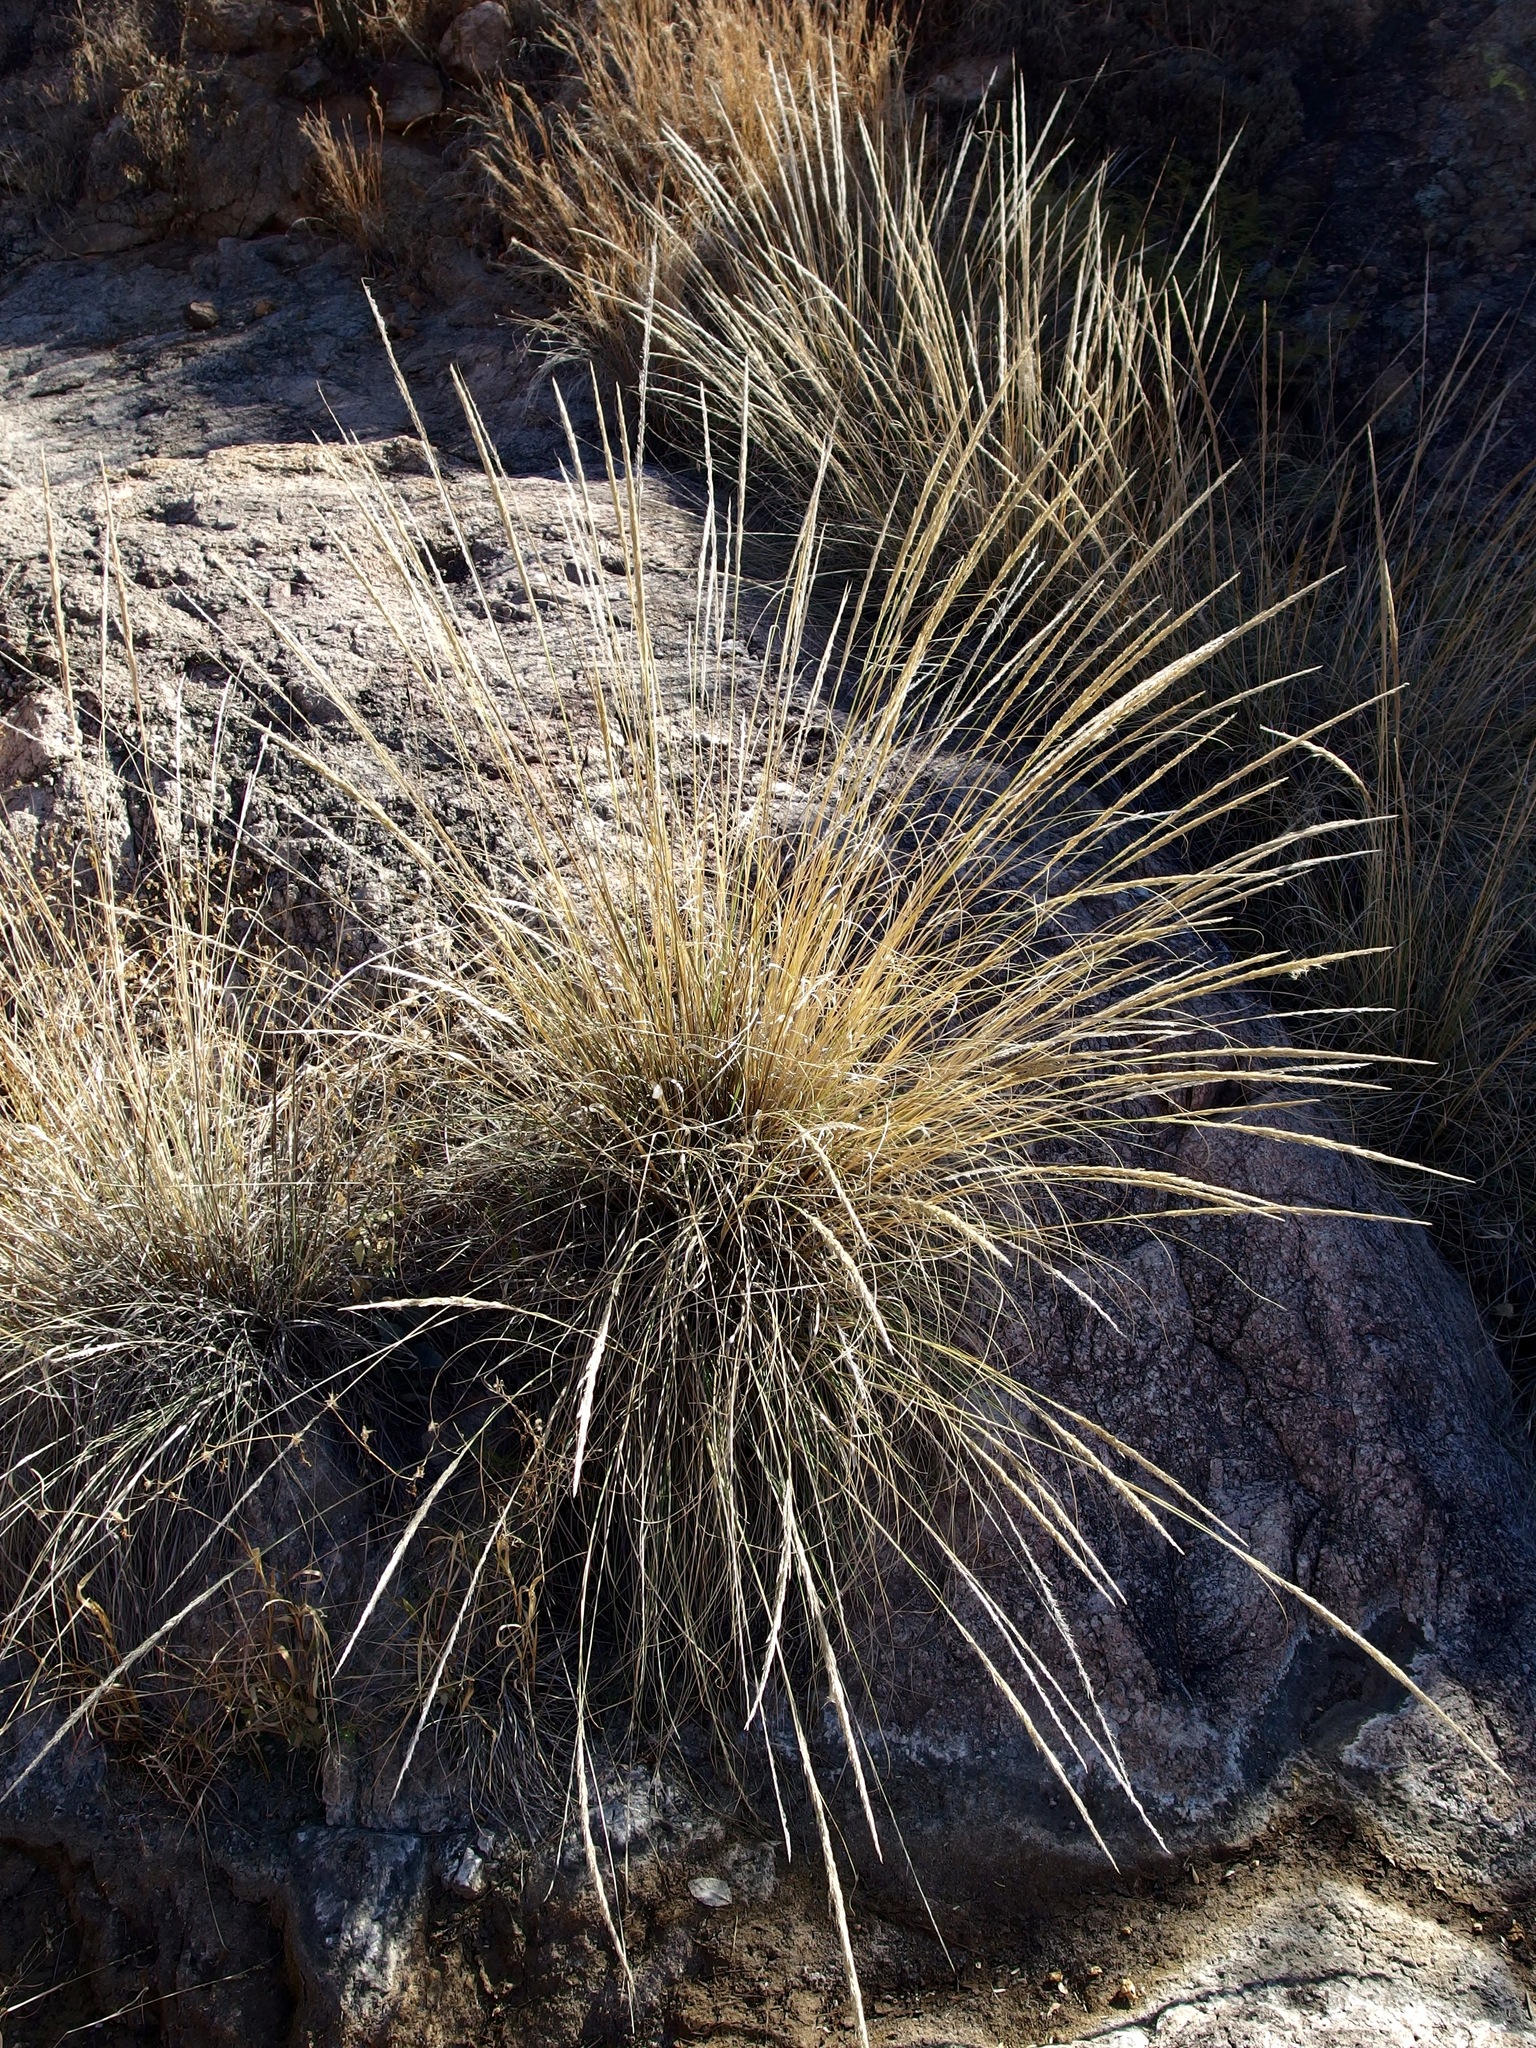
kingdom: Plantae
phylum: Tracheophyta
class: Liliopsida
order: Poales
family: Poaceae
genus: Muhlenbergia
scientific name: Muhlenbergia longiligula
